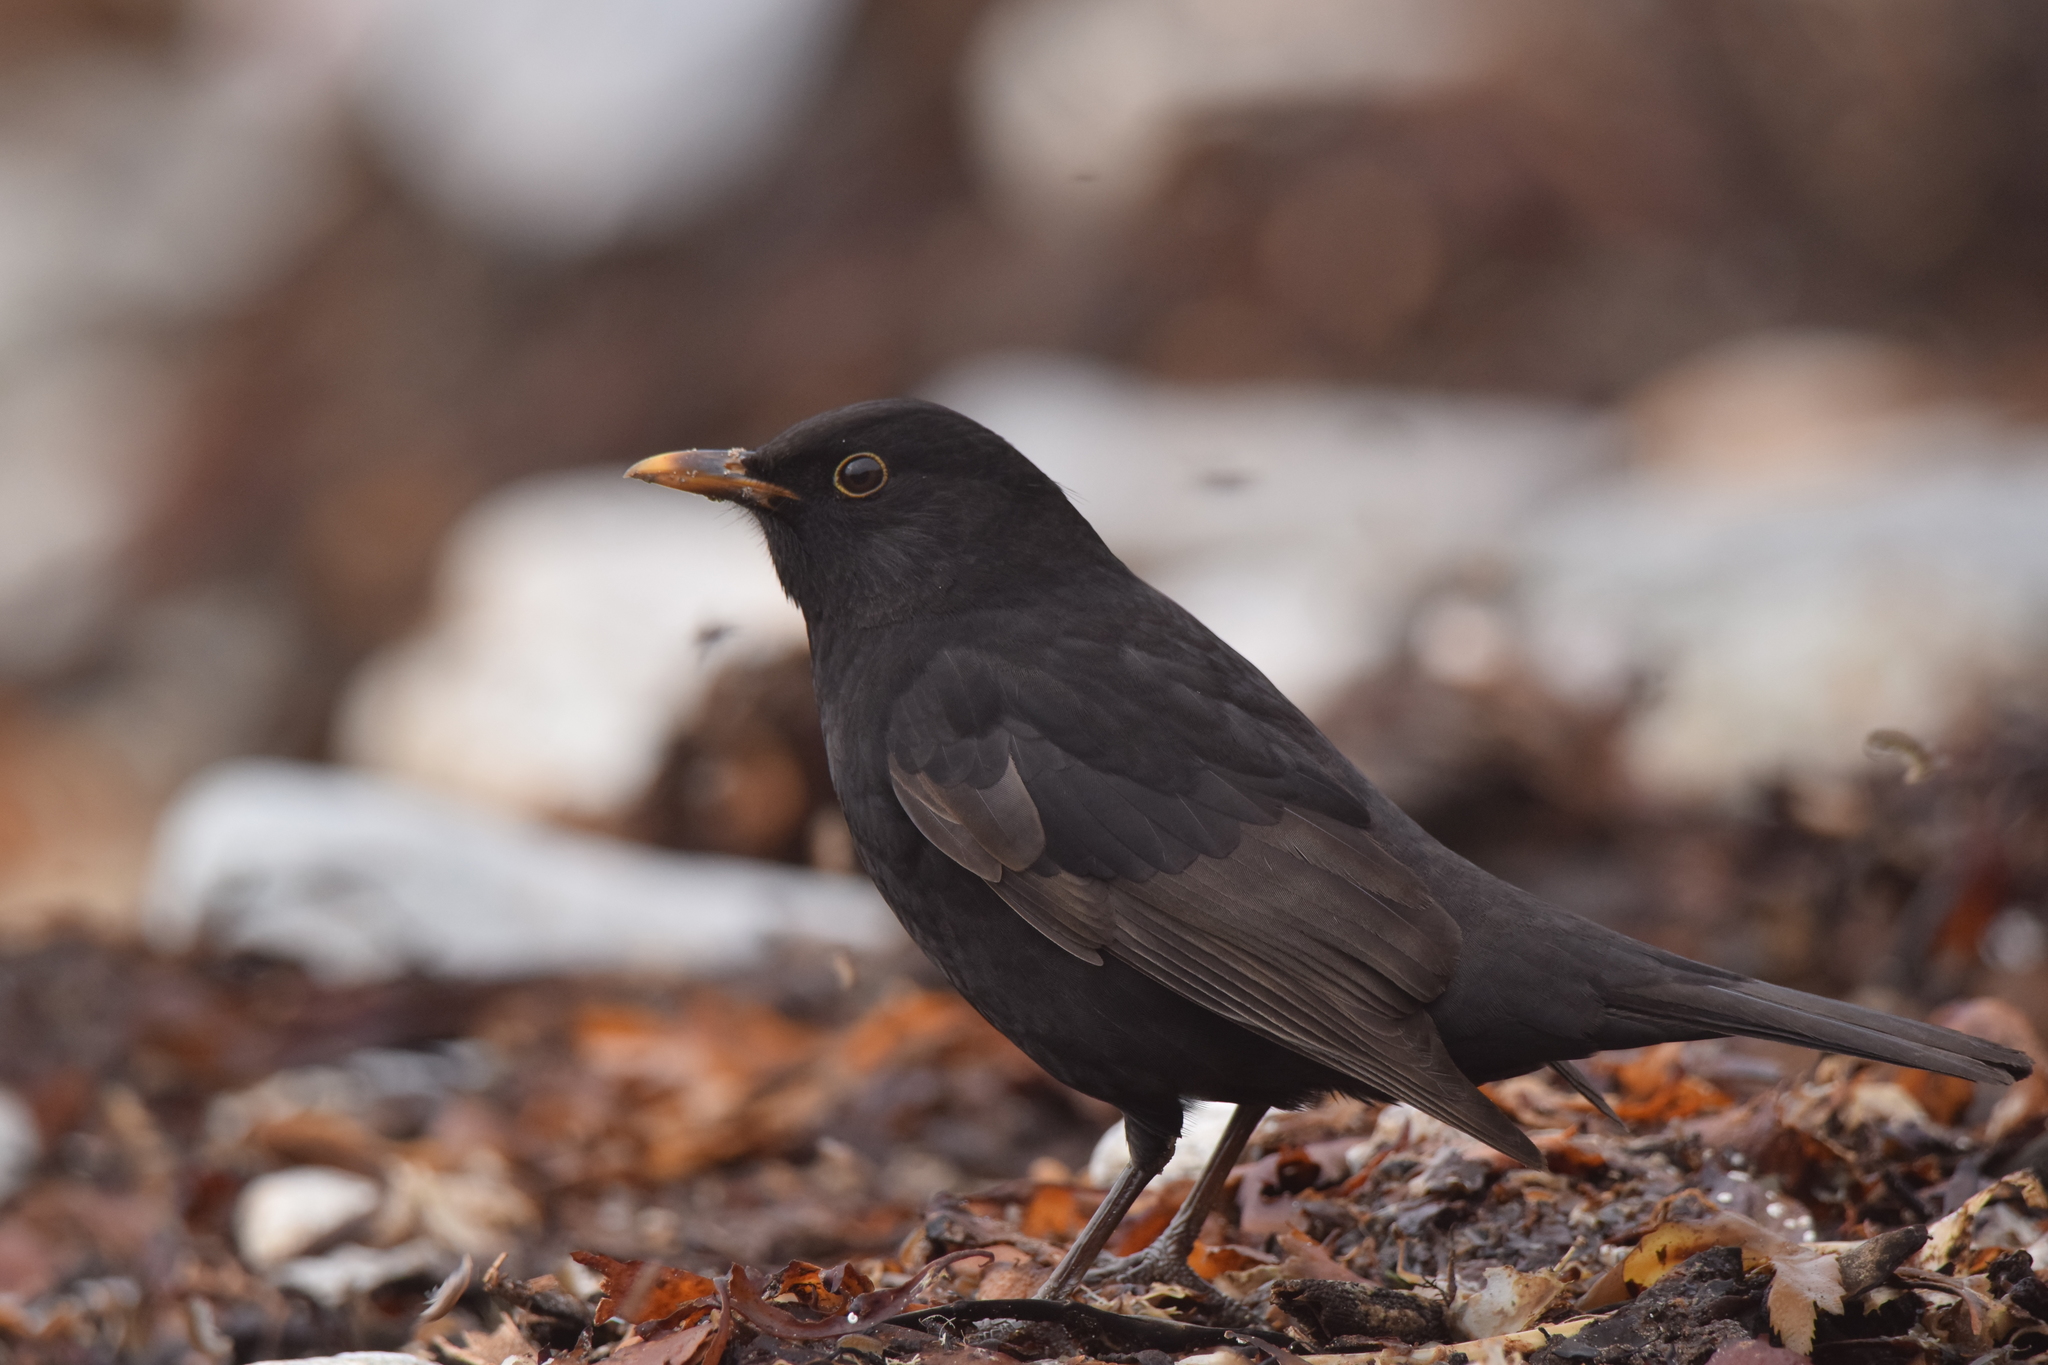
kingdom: Animalia
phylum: Chordata
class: Aves
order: Passeriformes
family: Turdidae
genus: Turdus
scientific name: Turdus merula
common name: Common blackbird
